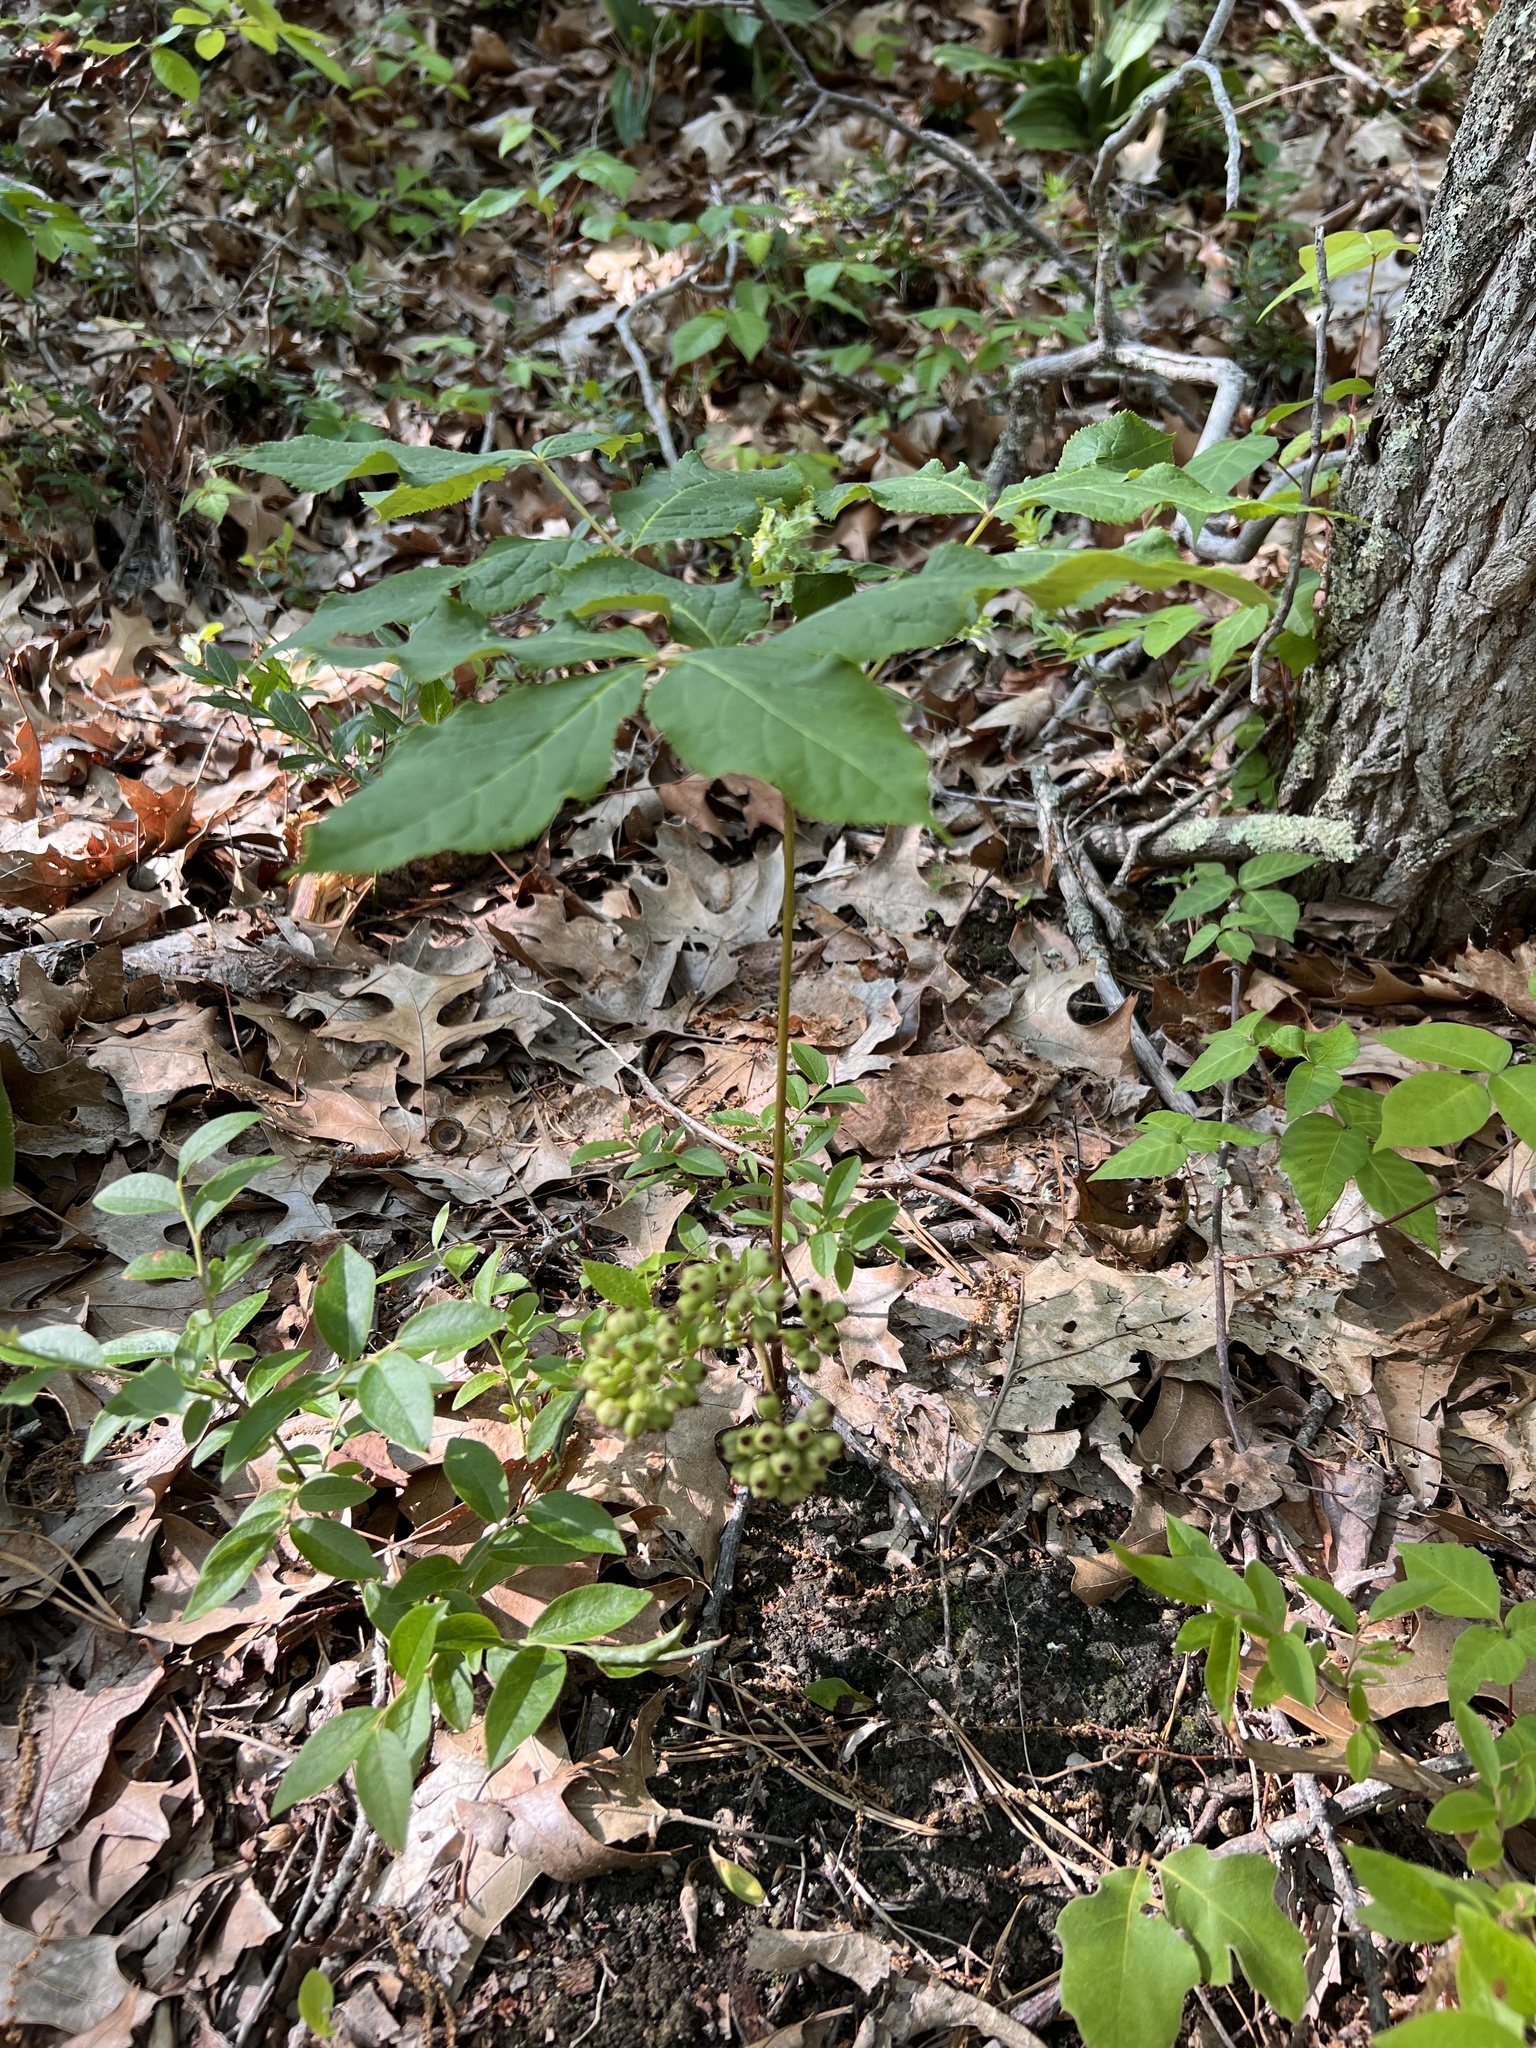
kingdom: Plantae
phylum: Tracheophyta
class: Magnoliopsida
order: Apiales
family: Araliaceae
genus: Aralia
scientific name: Aralia nudicaulis
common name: Wild sarsaparilla
